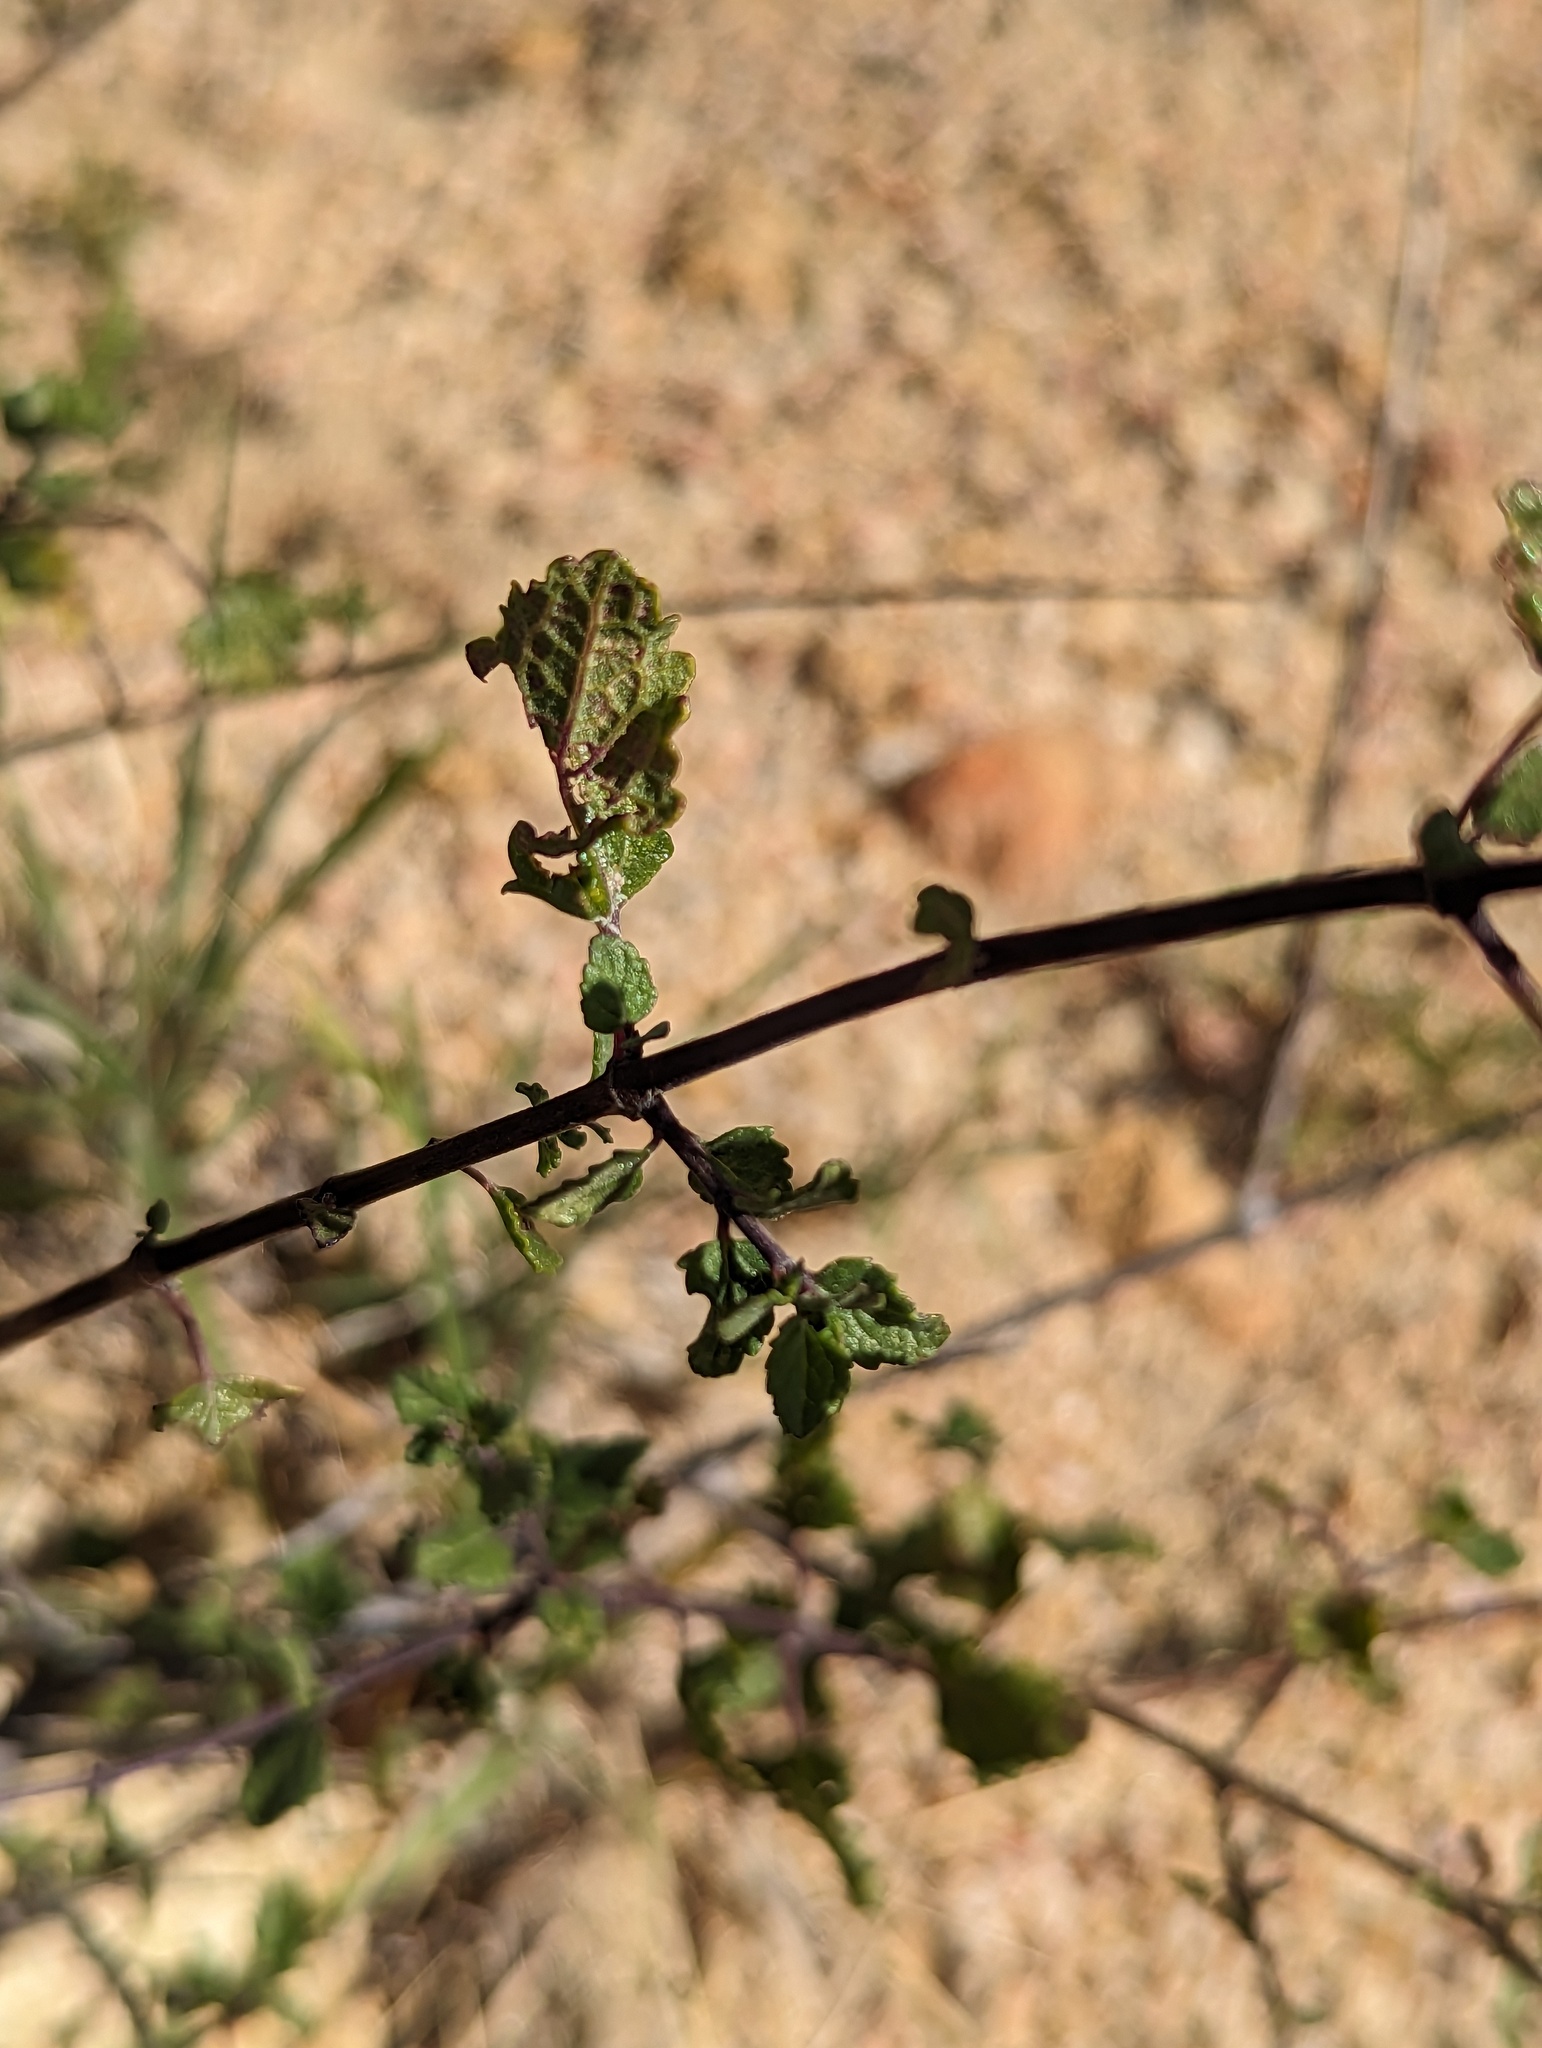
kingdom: Plantae
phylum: Tracheophyta
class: Magnoliopsida
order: Lamiales
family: Lamiaceae
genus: Mesosphaerum
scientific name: Mesosphaerum collinum
